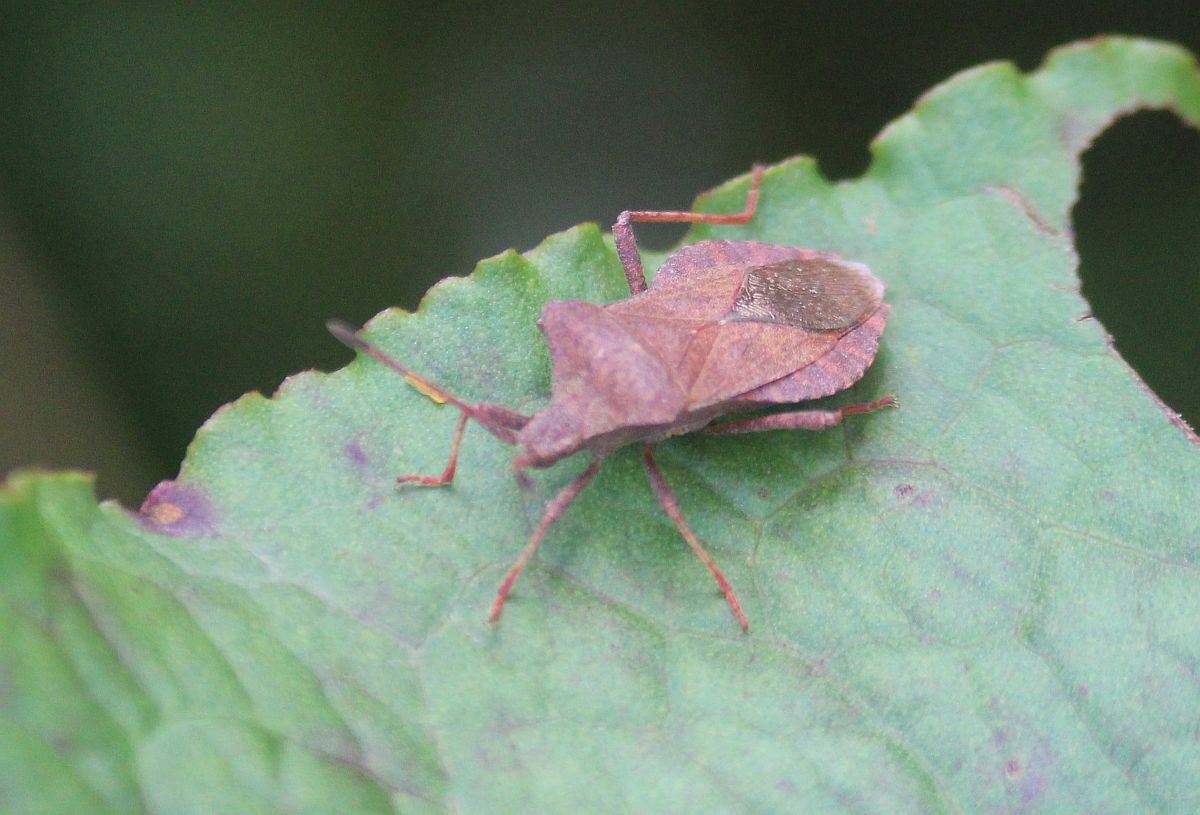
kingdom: Animalia
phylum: Arthropoda
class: Insecta
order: Hemiptera
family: Coreidae
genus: Coreus
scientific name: Coreus marginatus
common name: Dock bug
